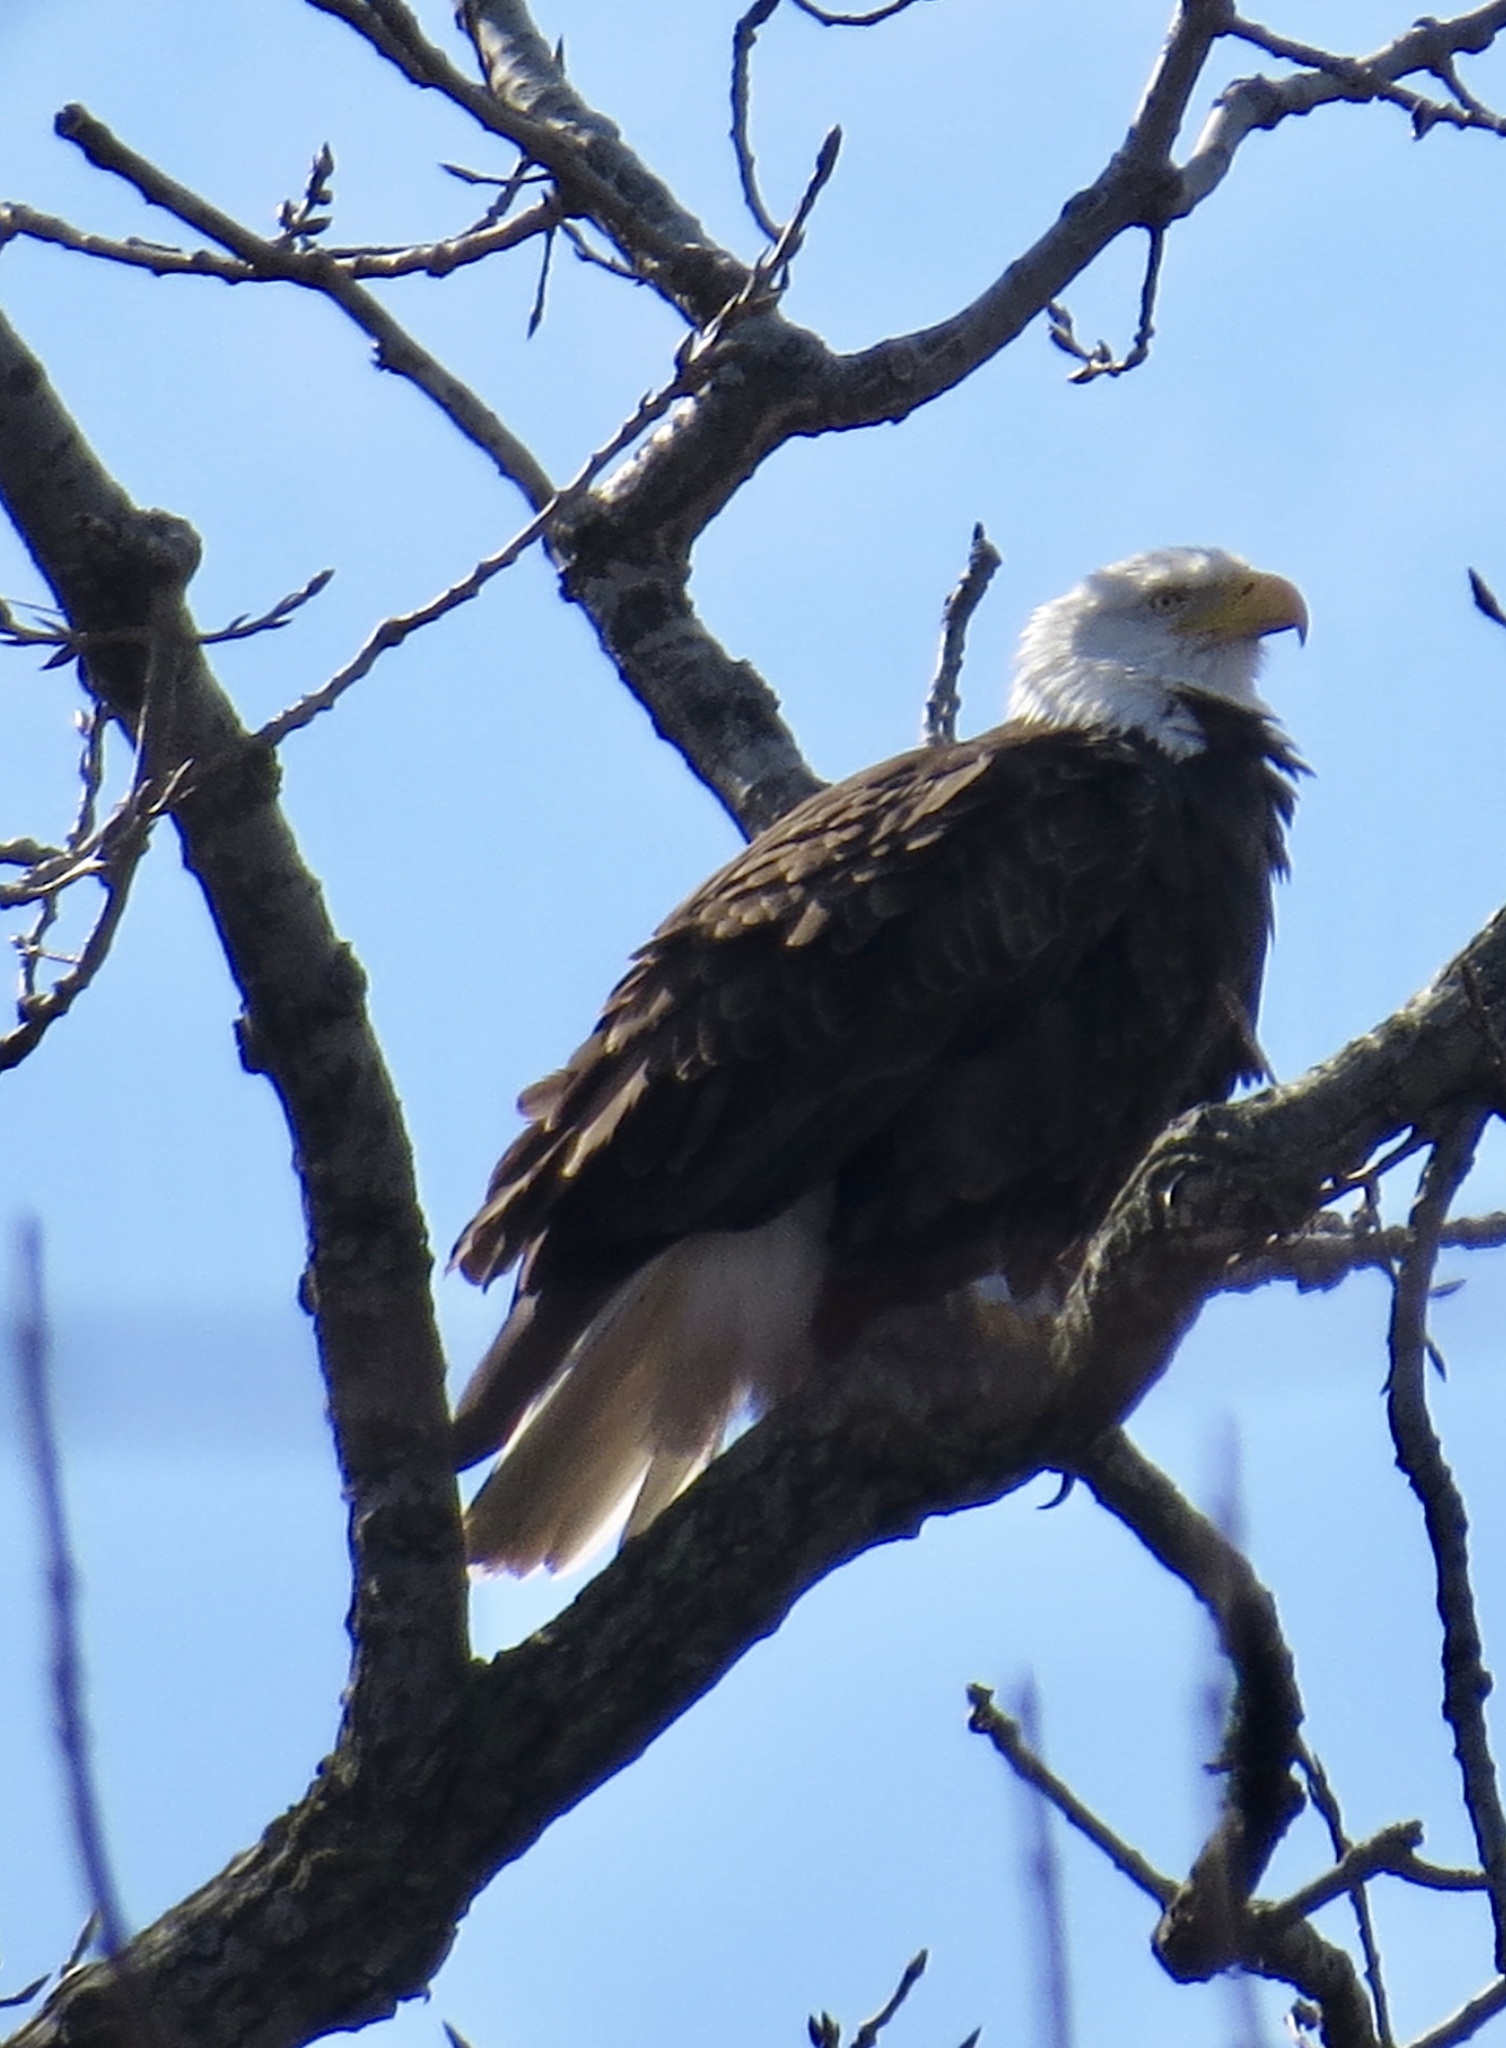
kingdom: Animalia
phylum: Chordata
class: Aves
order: Accipitriformes
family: Accipitridae
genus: Haliaeetus
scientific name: Haliaeetus leucocephalus
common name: Bald eagle
